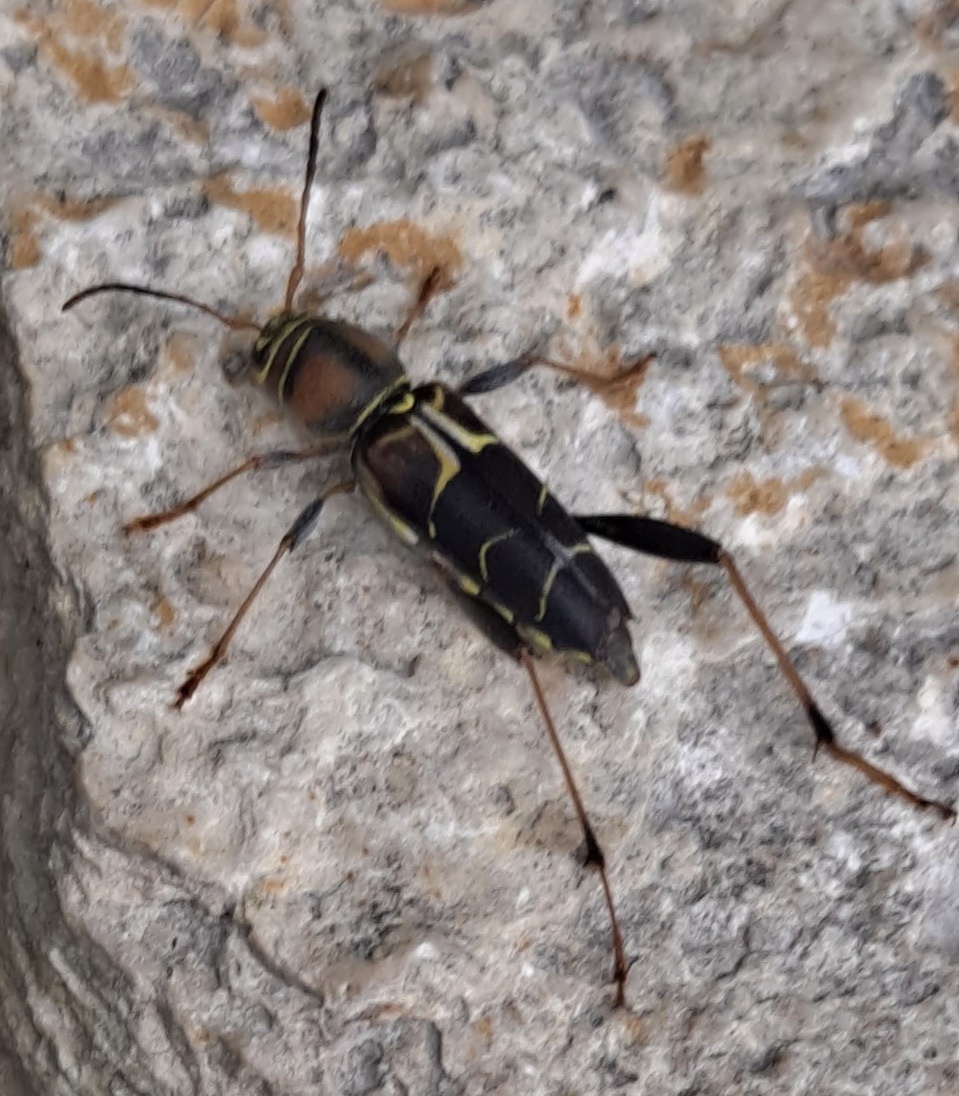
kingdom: Animalia
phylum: Arthropoda
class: Insecta
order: Coleoptera
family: Cerambycidae
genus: Neoclytus
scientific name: Neoclytus mucronatus
